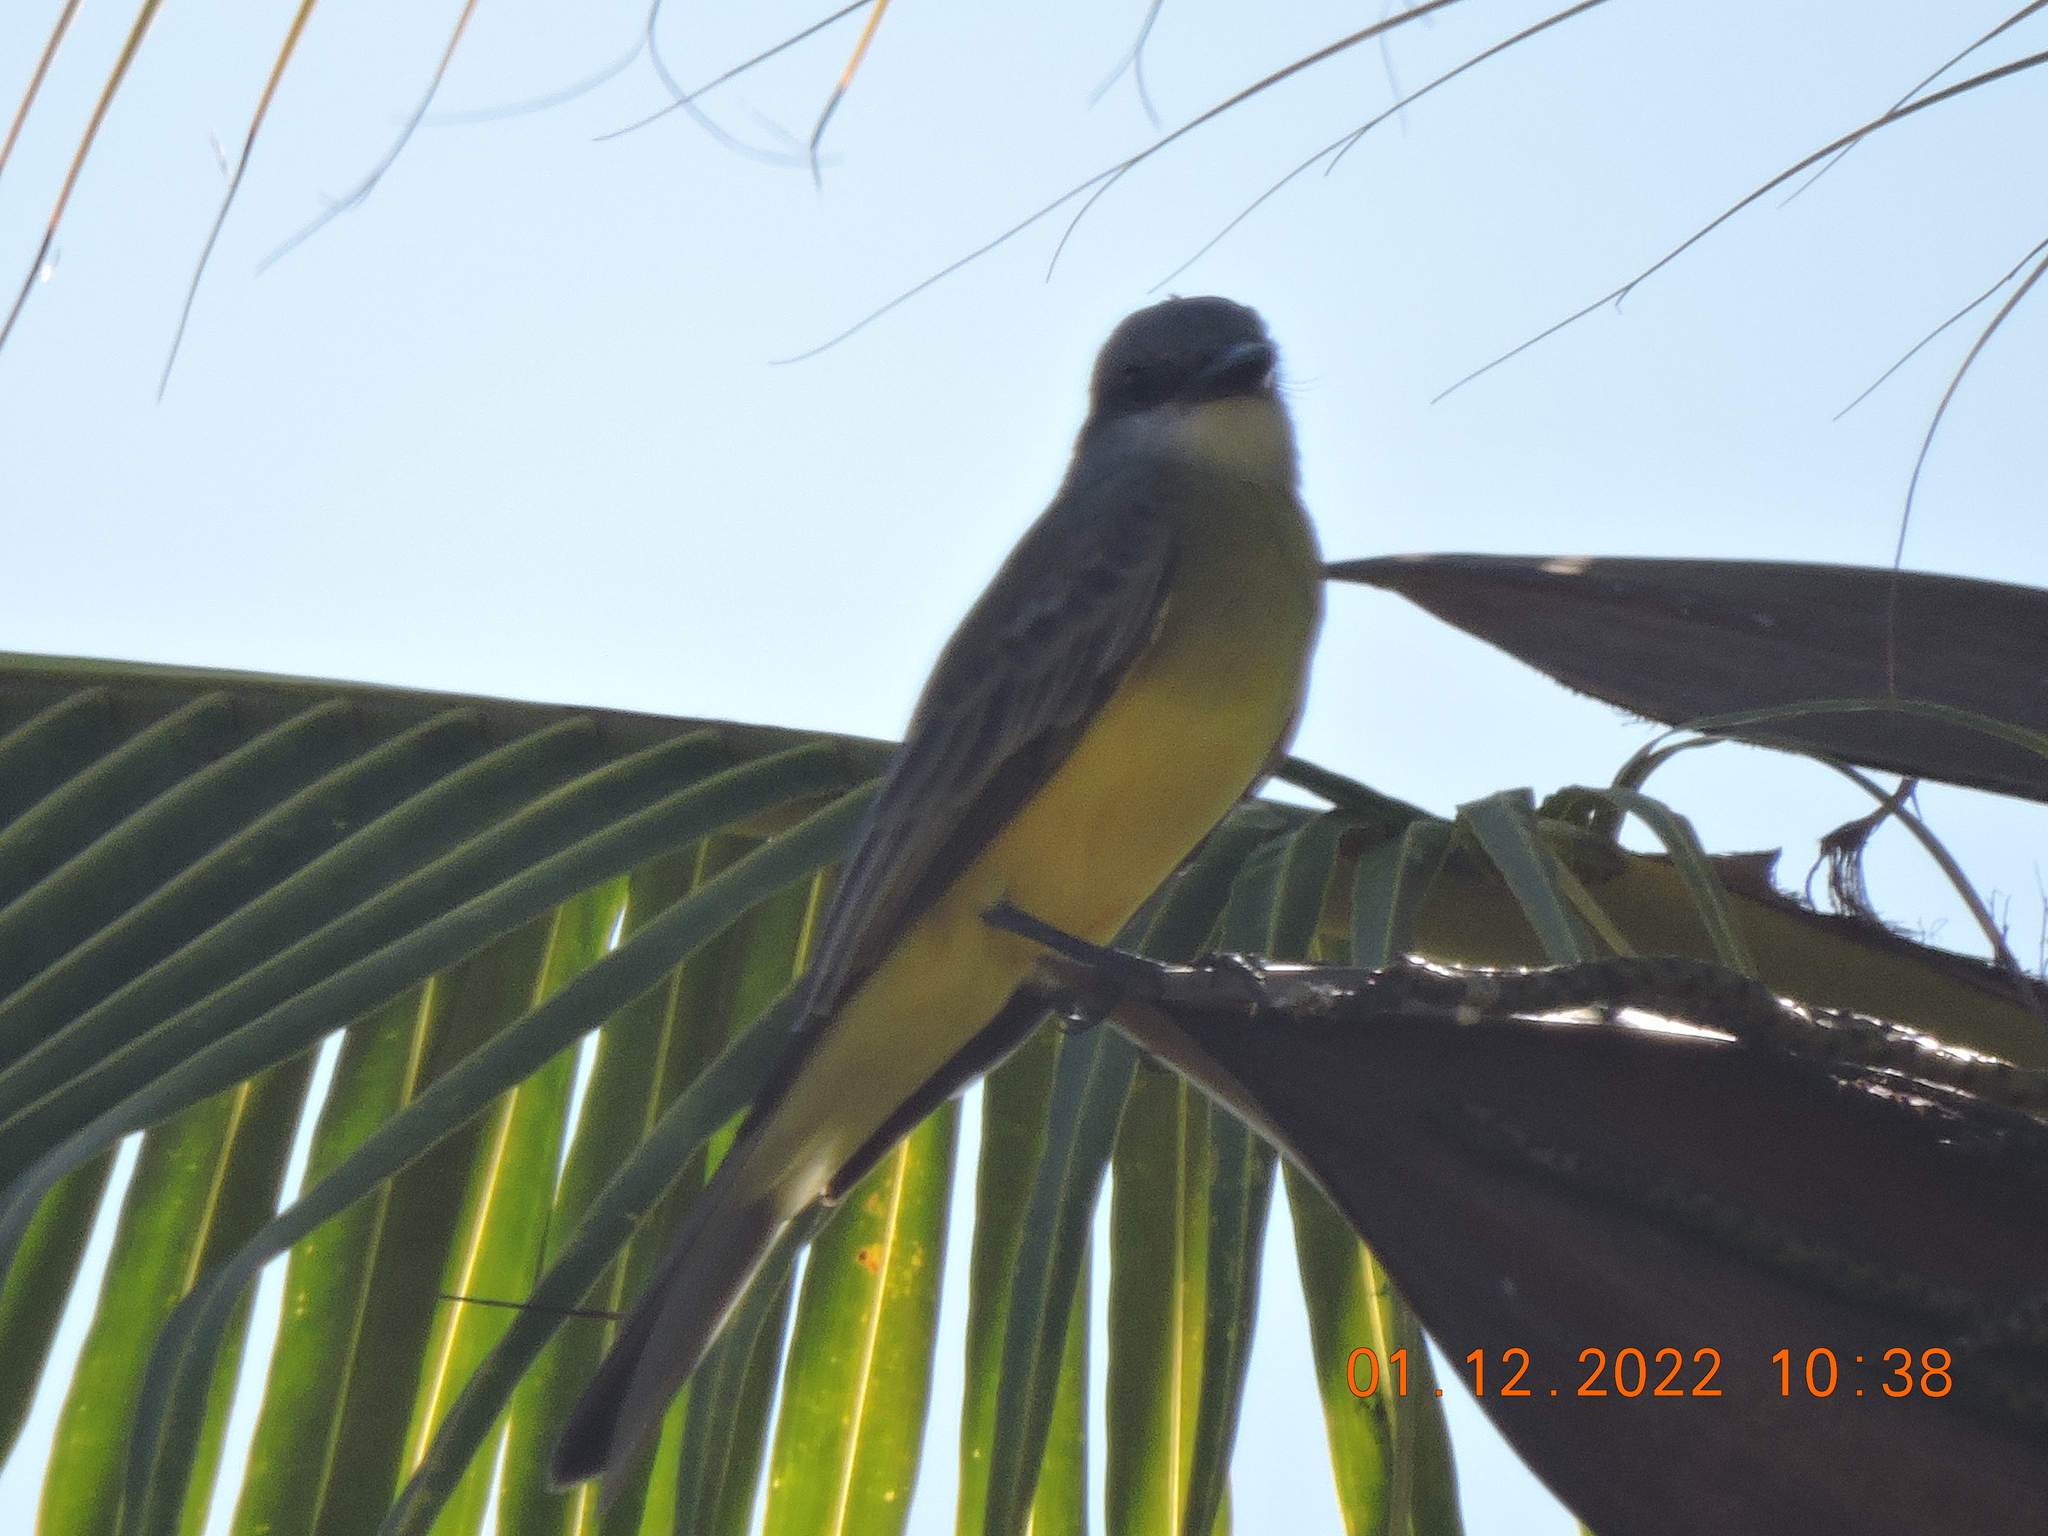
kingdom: Animalia
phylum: Chordata
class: Aves
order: Passeriformes
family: Tyrannidae
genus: Tyrannus
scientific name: Tyrannus melancholicus
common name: Tropical kingbird
